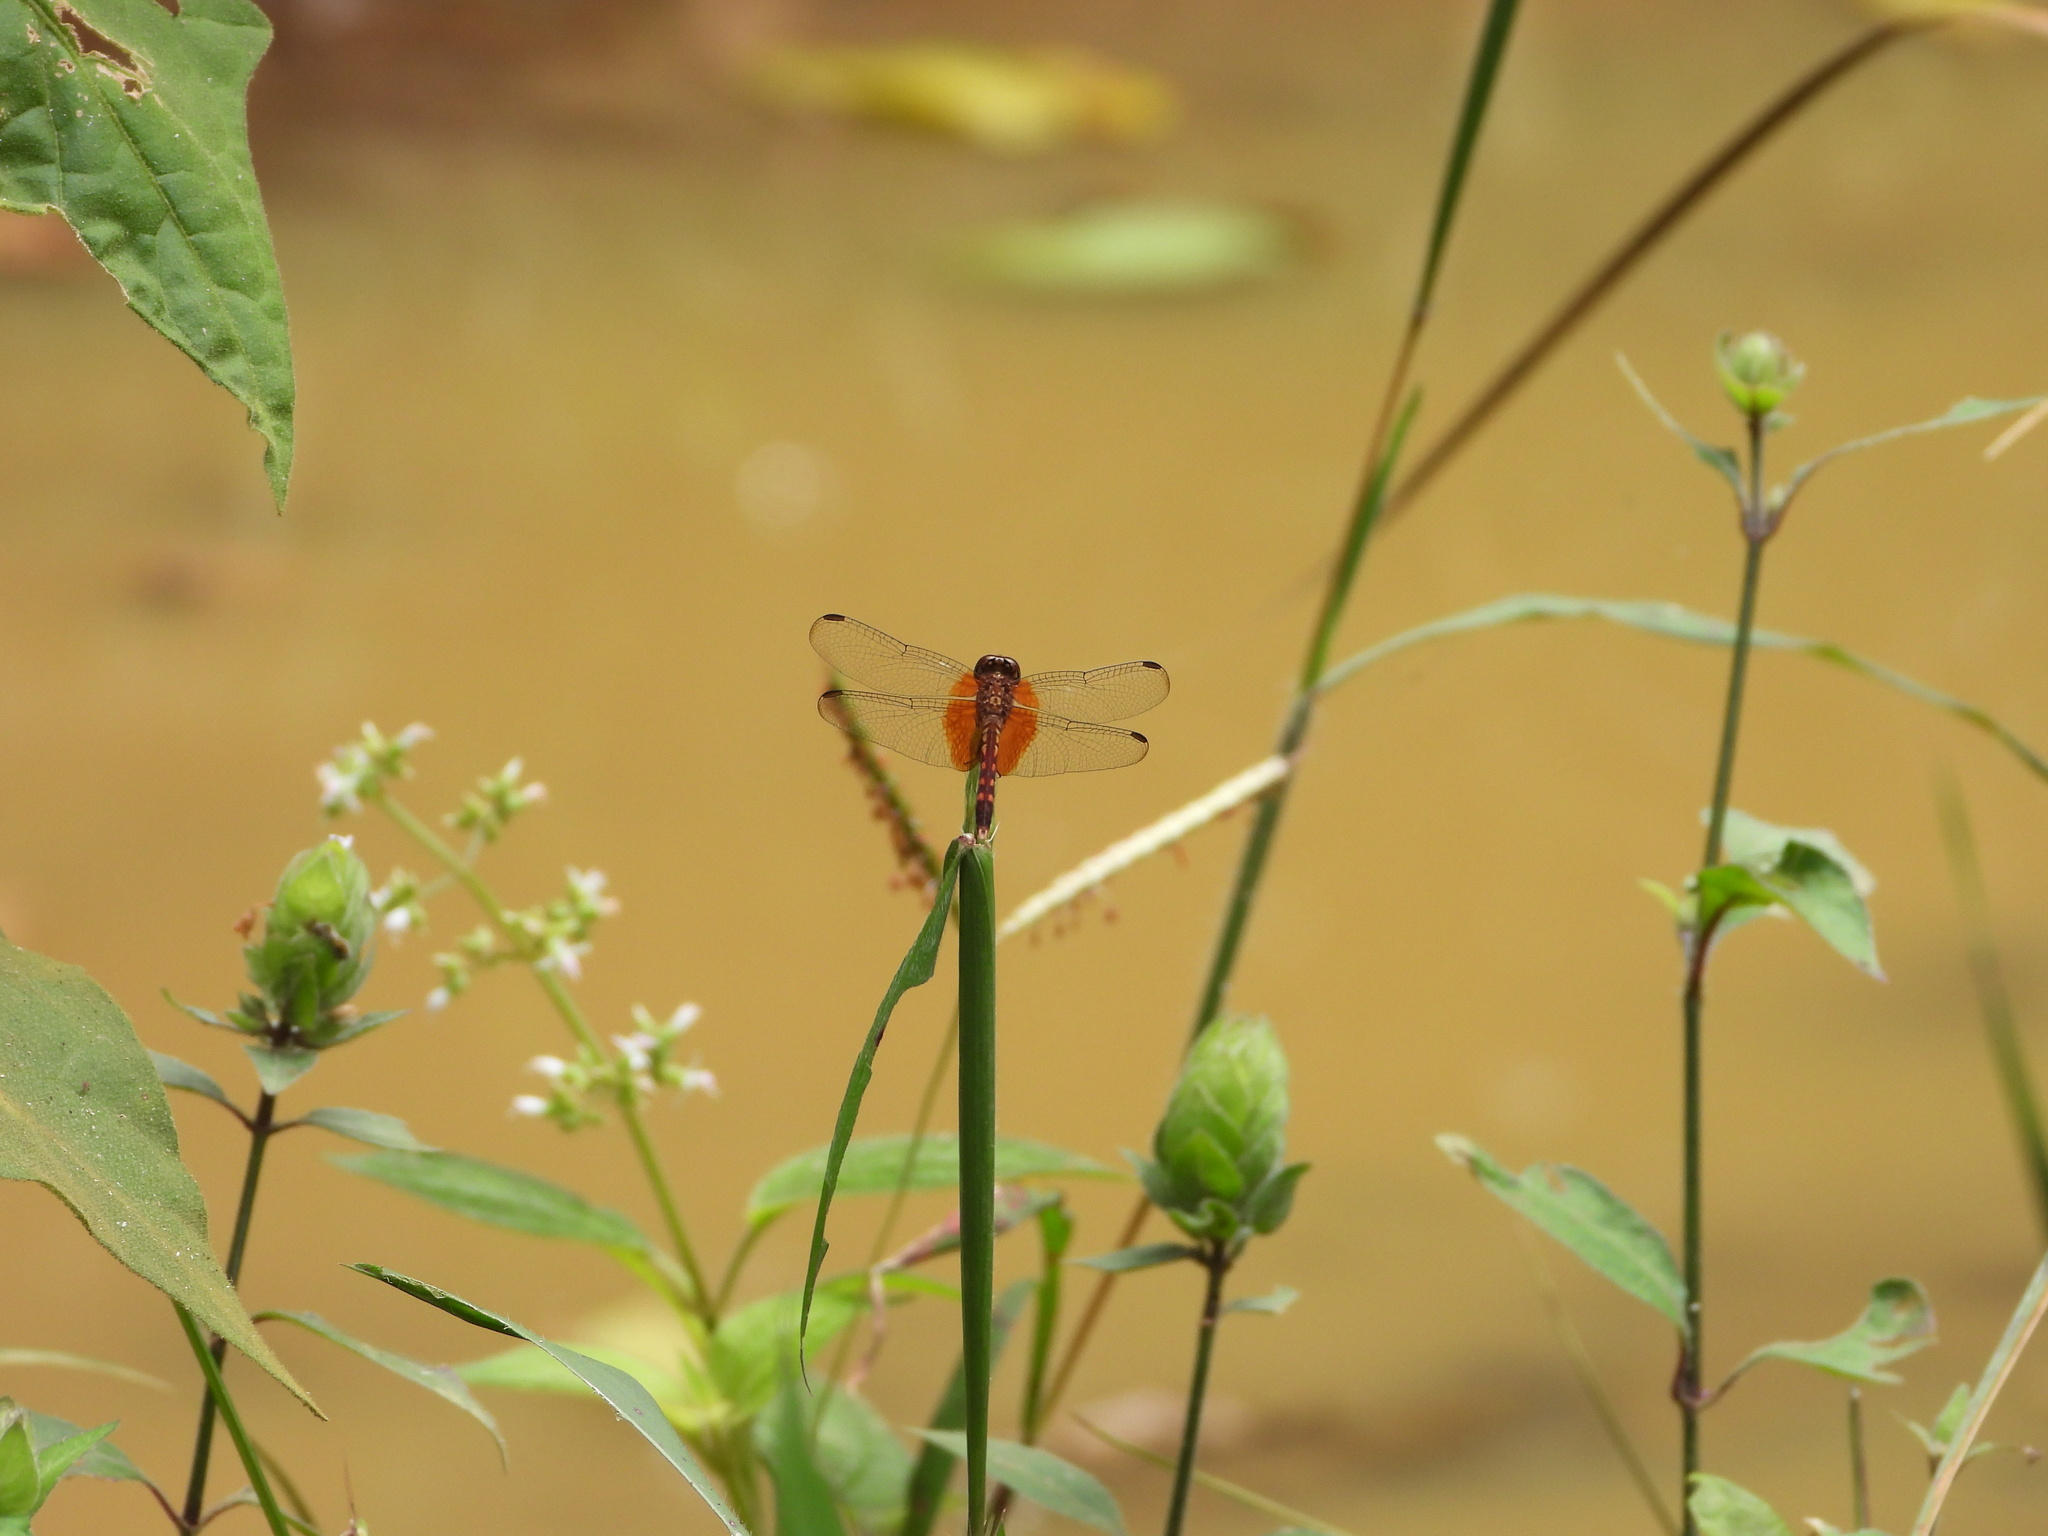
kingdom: Animalia
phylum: Arthropoda
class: Insecta
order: Odonata
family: Libellulidae
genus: Erythrodiplax
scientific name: Erythrodiplax fervida
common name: Red-mantled dragonlet
